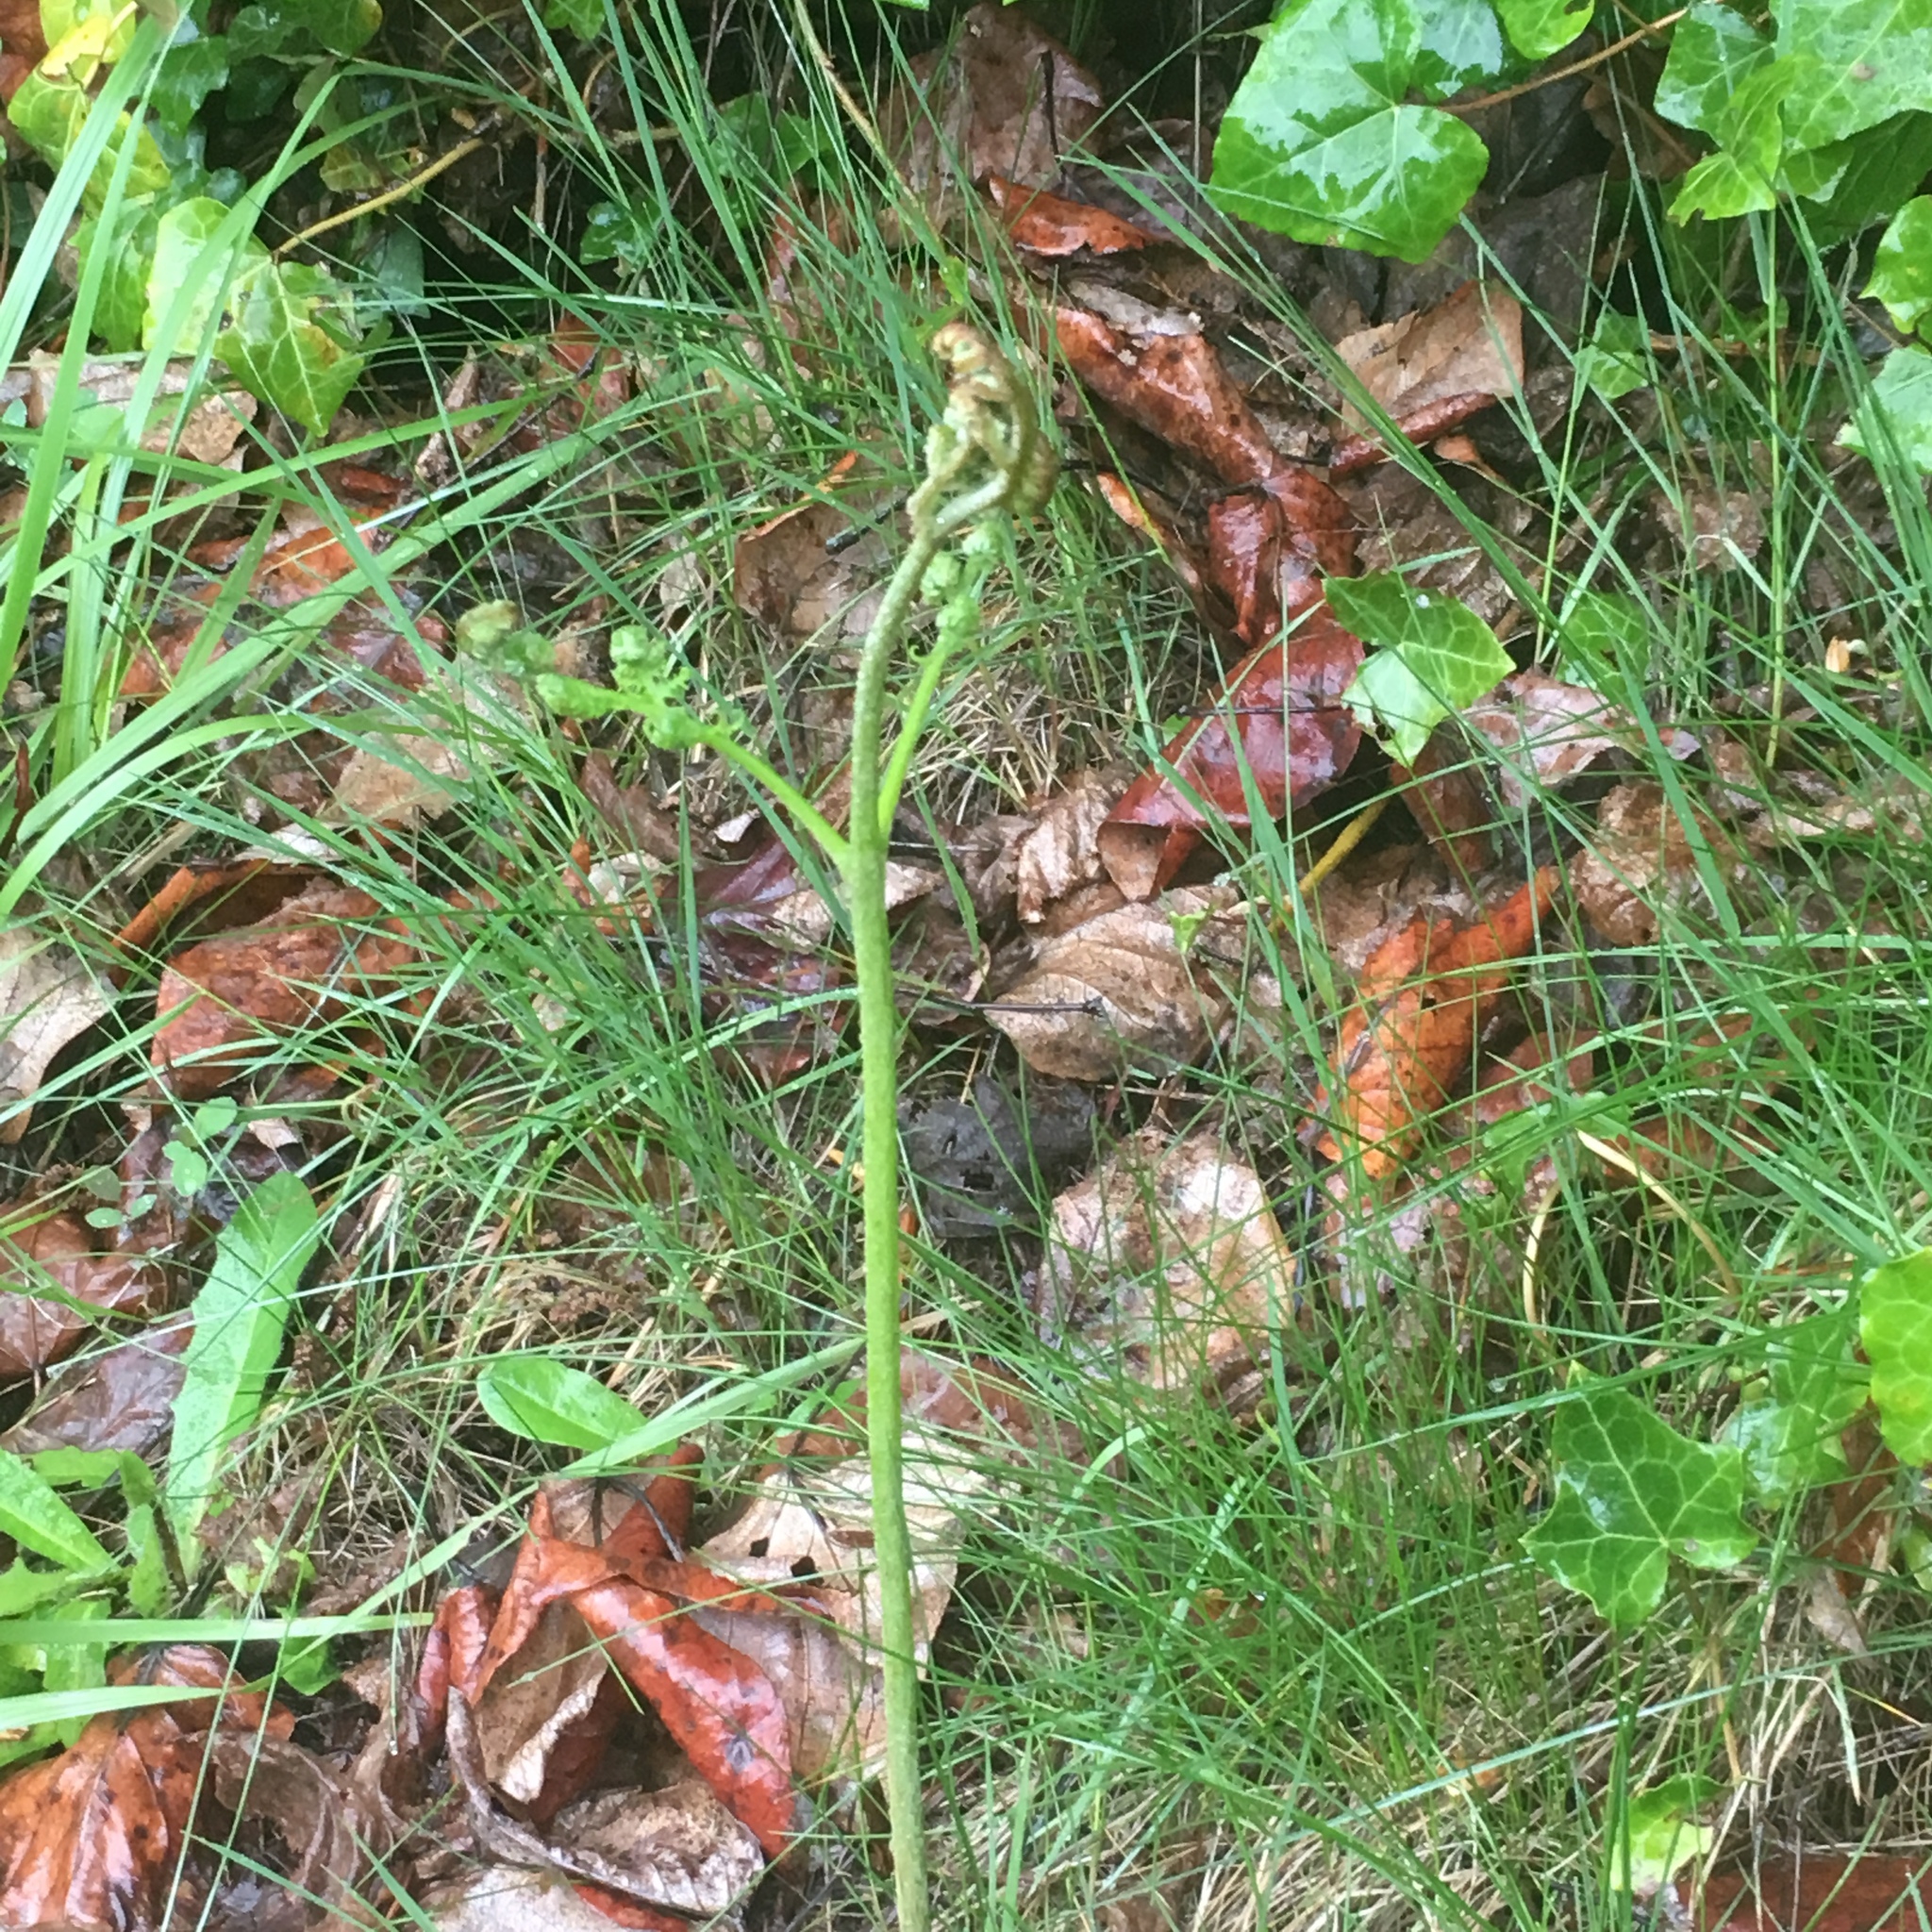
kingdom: Plantae
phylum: Tracheophyta
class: Polypodiopsida
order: Polypodiales
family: Dennstaedtiaceae
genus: Pteridium
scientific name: Pteridium aquilinum
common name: Bracken
